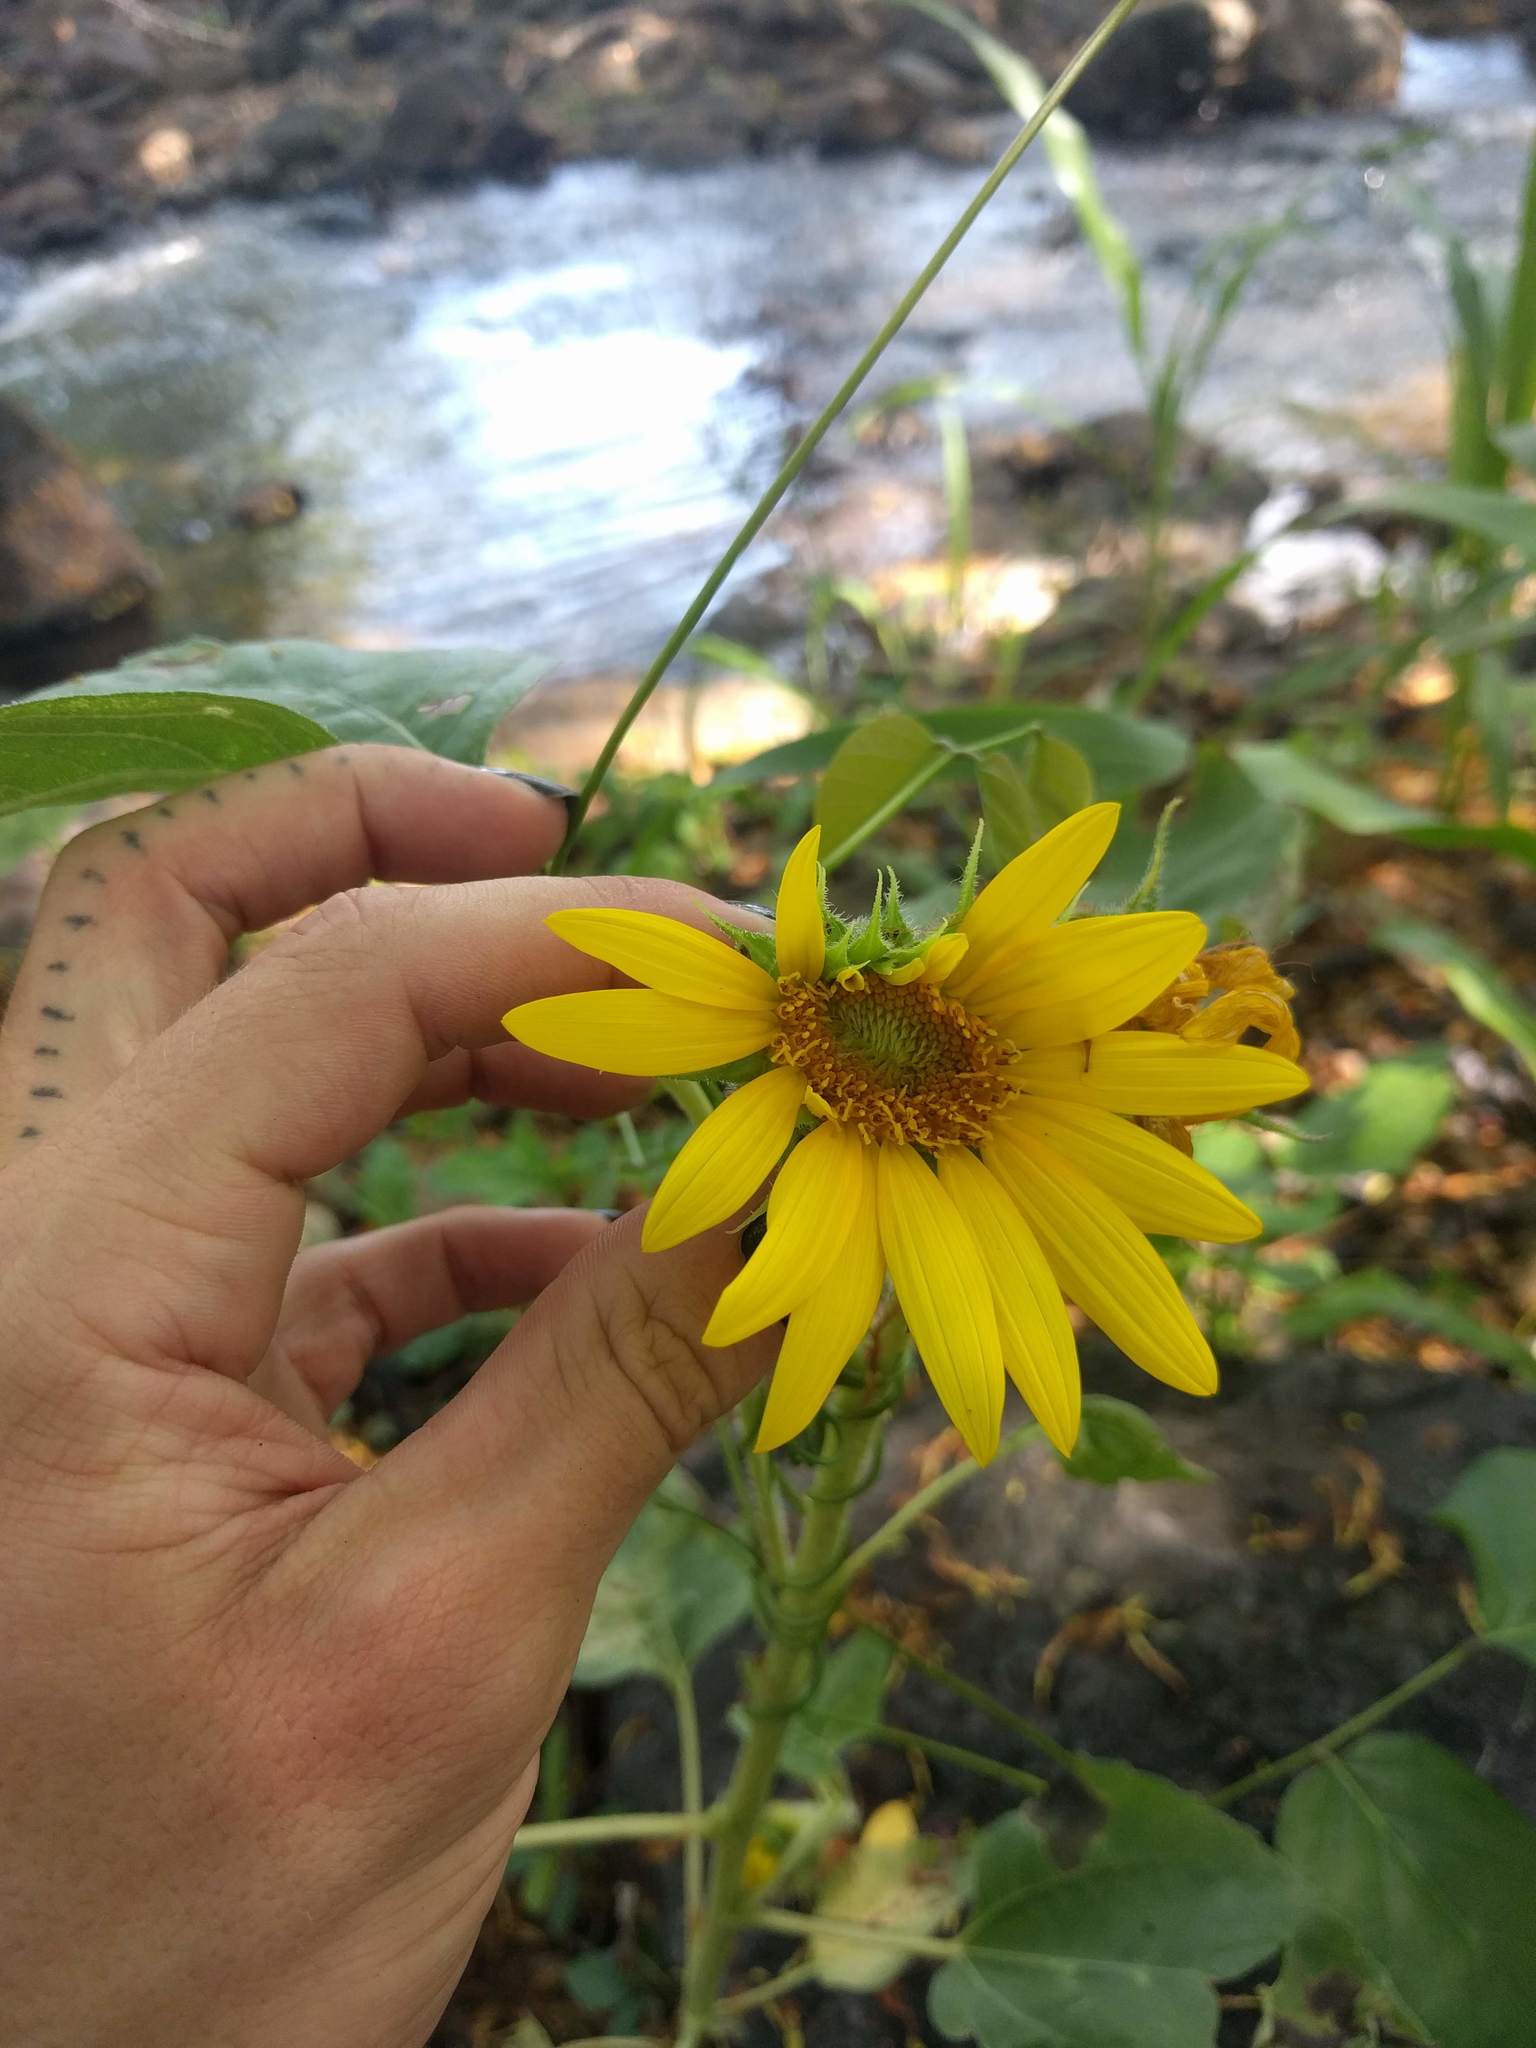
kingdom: Plantae
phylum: Tracheophyta
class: Magnoliopsida
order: Asterales
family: Asteraceae
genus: Helianthus
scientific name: Helianthus annuus
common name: Sunflower
